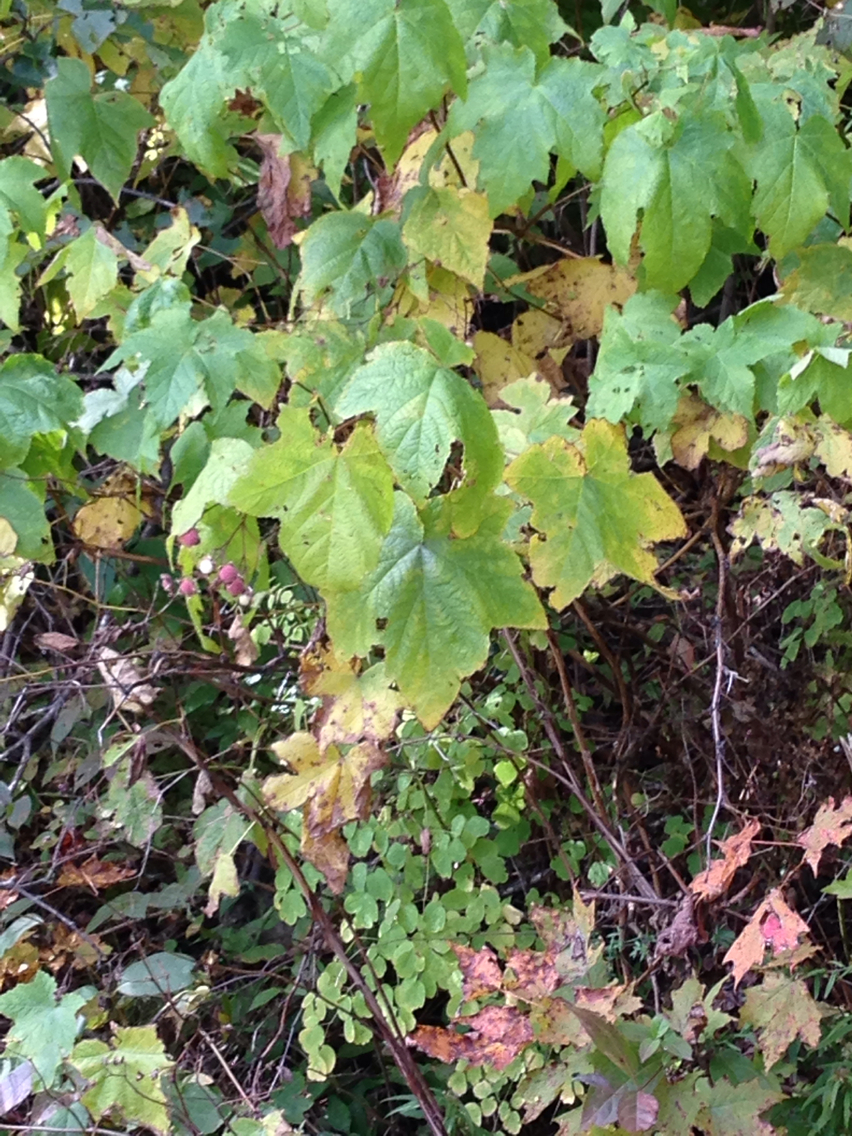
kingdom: Plantae
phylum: Tracheophyta
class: Magnoliopsida
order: Rosales
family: Rosaceae
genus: Rubus
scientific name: Rubus odoratus
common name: Purple-flowered raspberry
